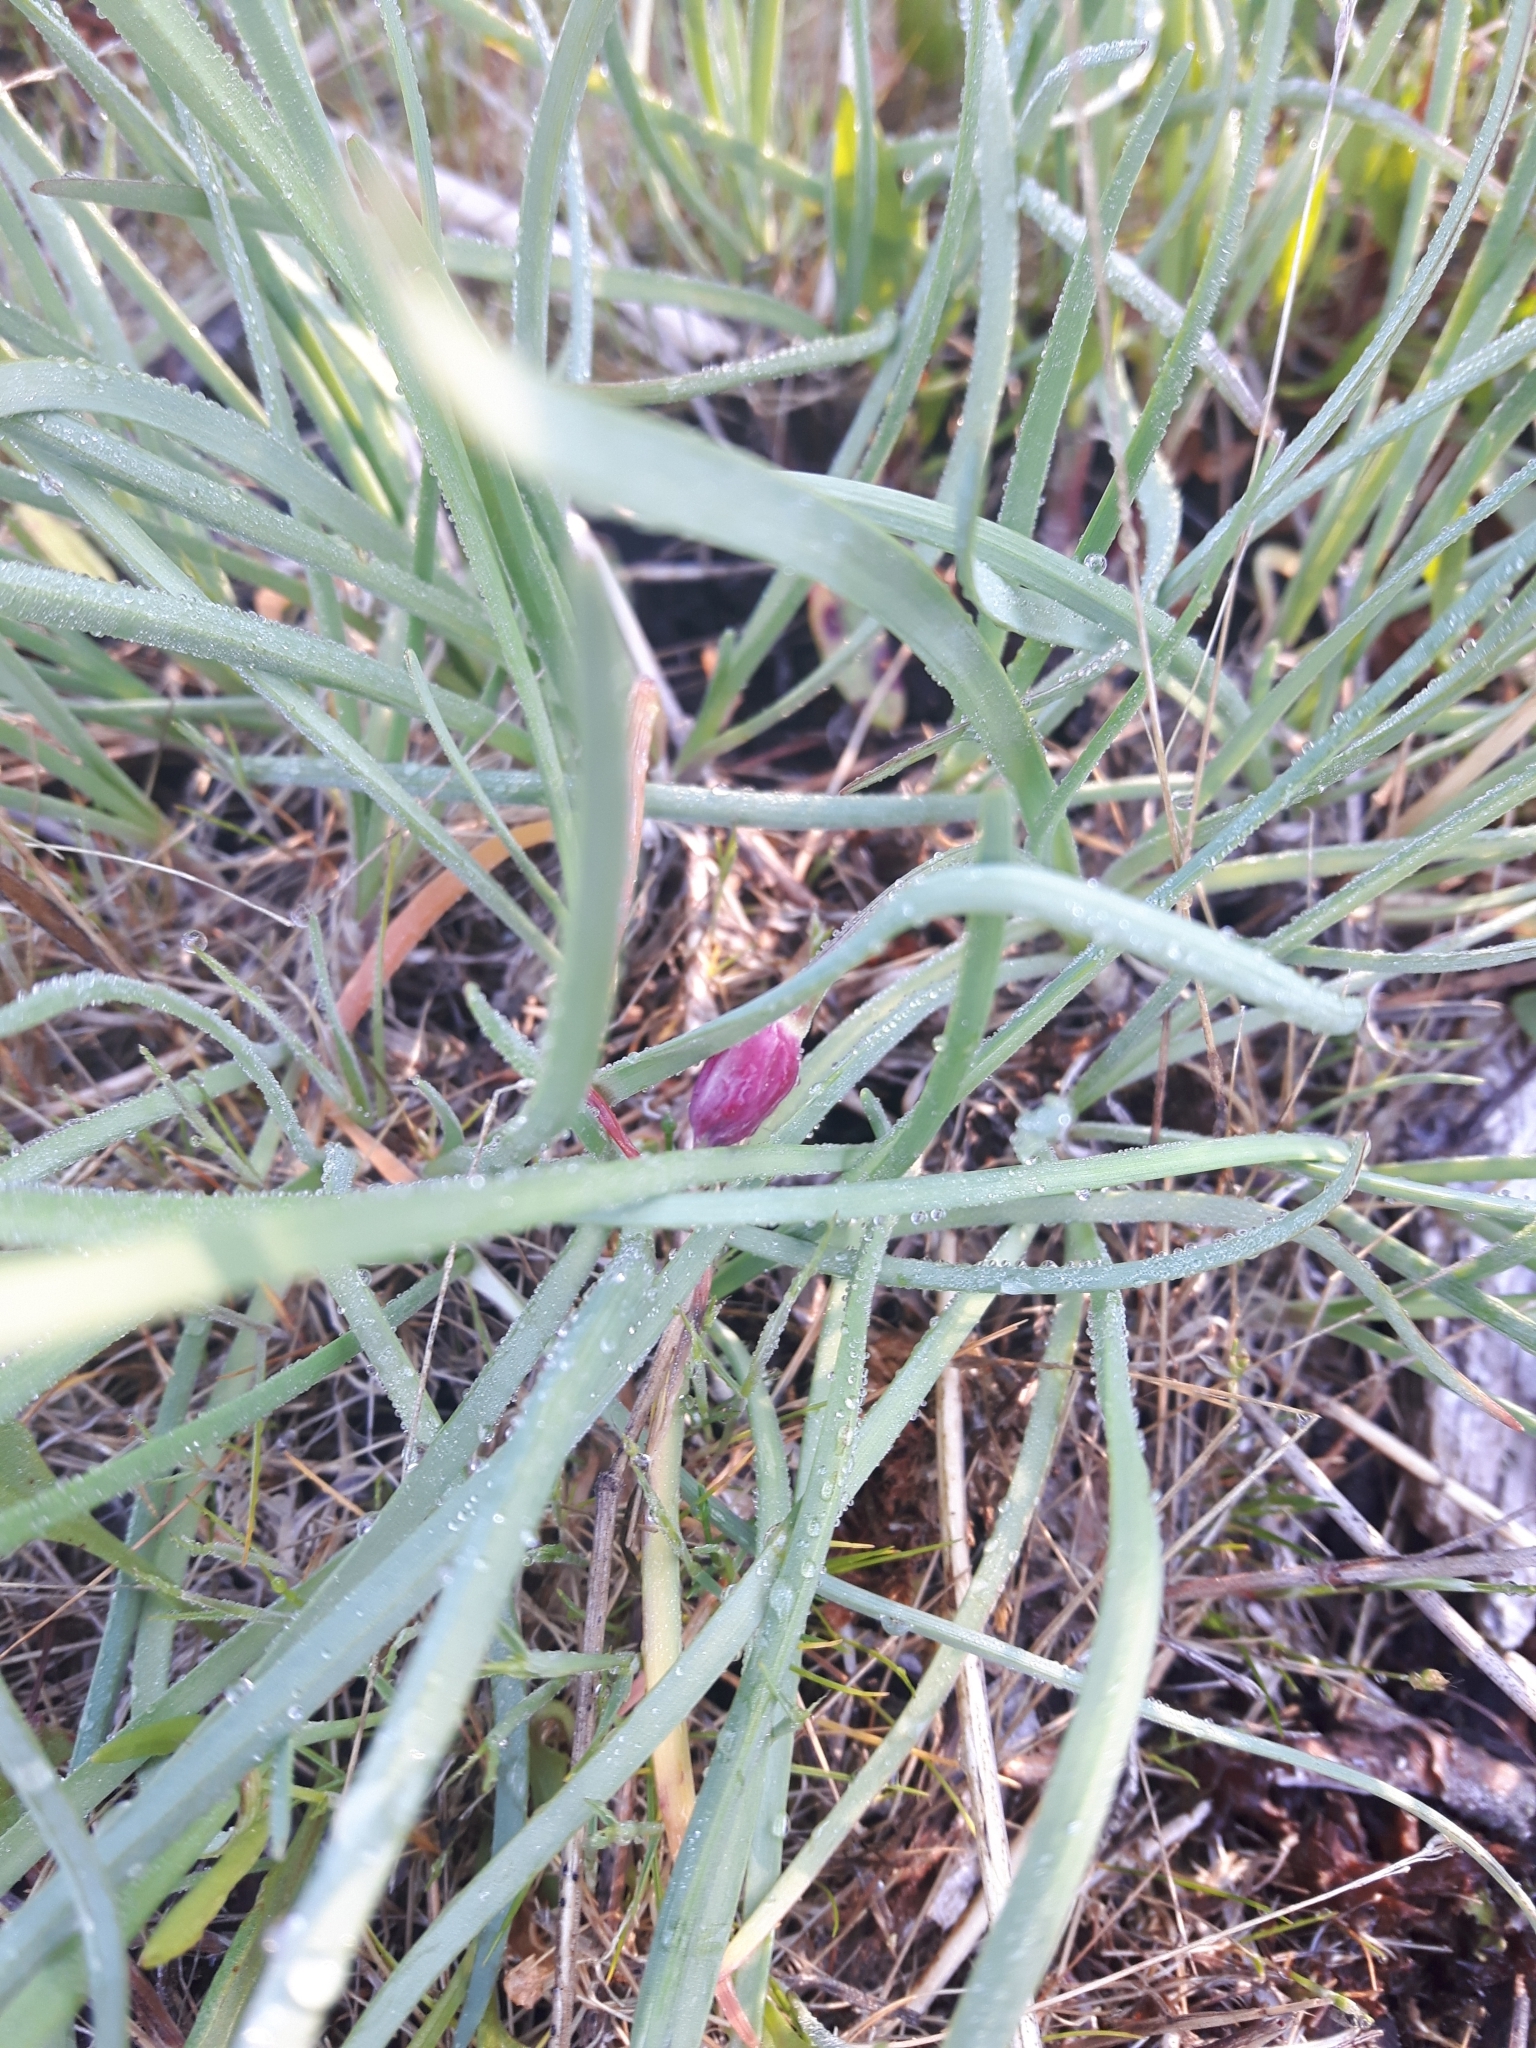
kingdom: Plantae
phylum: Tracheophyta
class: Liliopsida
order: Asparagales
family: Amaryllidaceae
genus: Allium
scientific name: Allium cernuum
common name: Nodding onion
